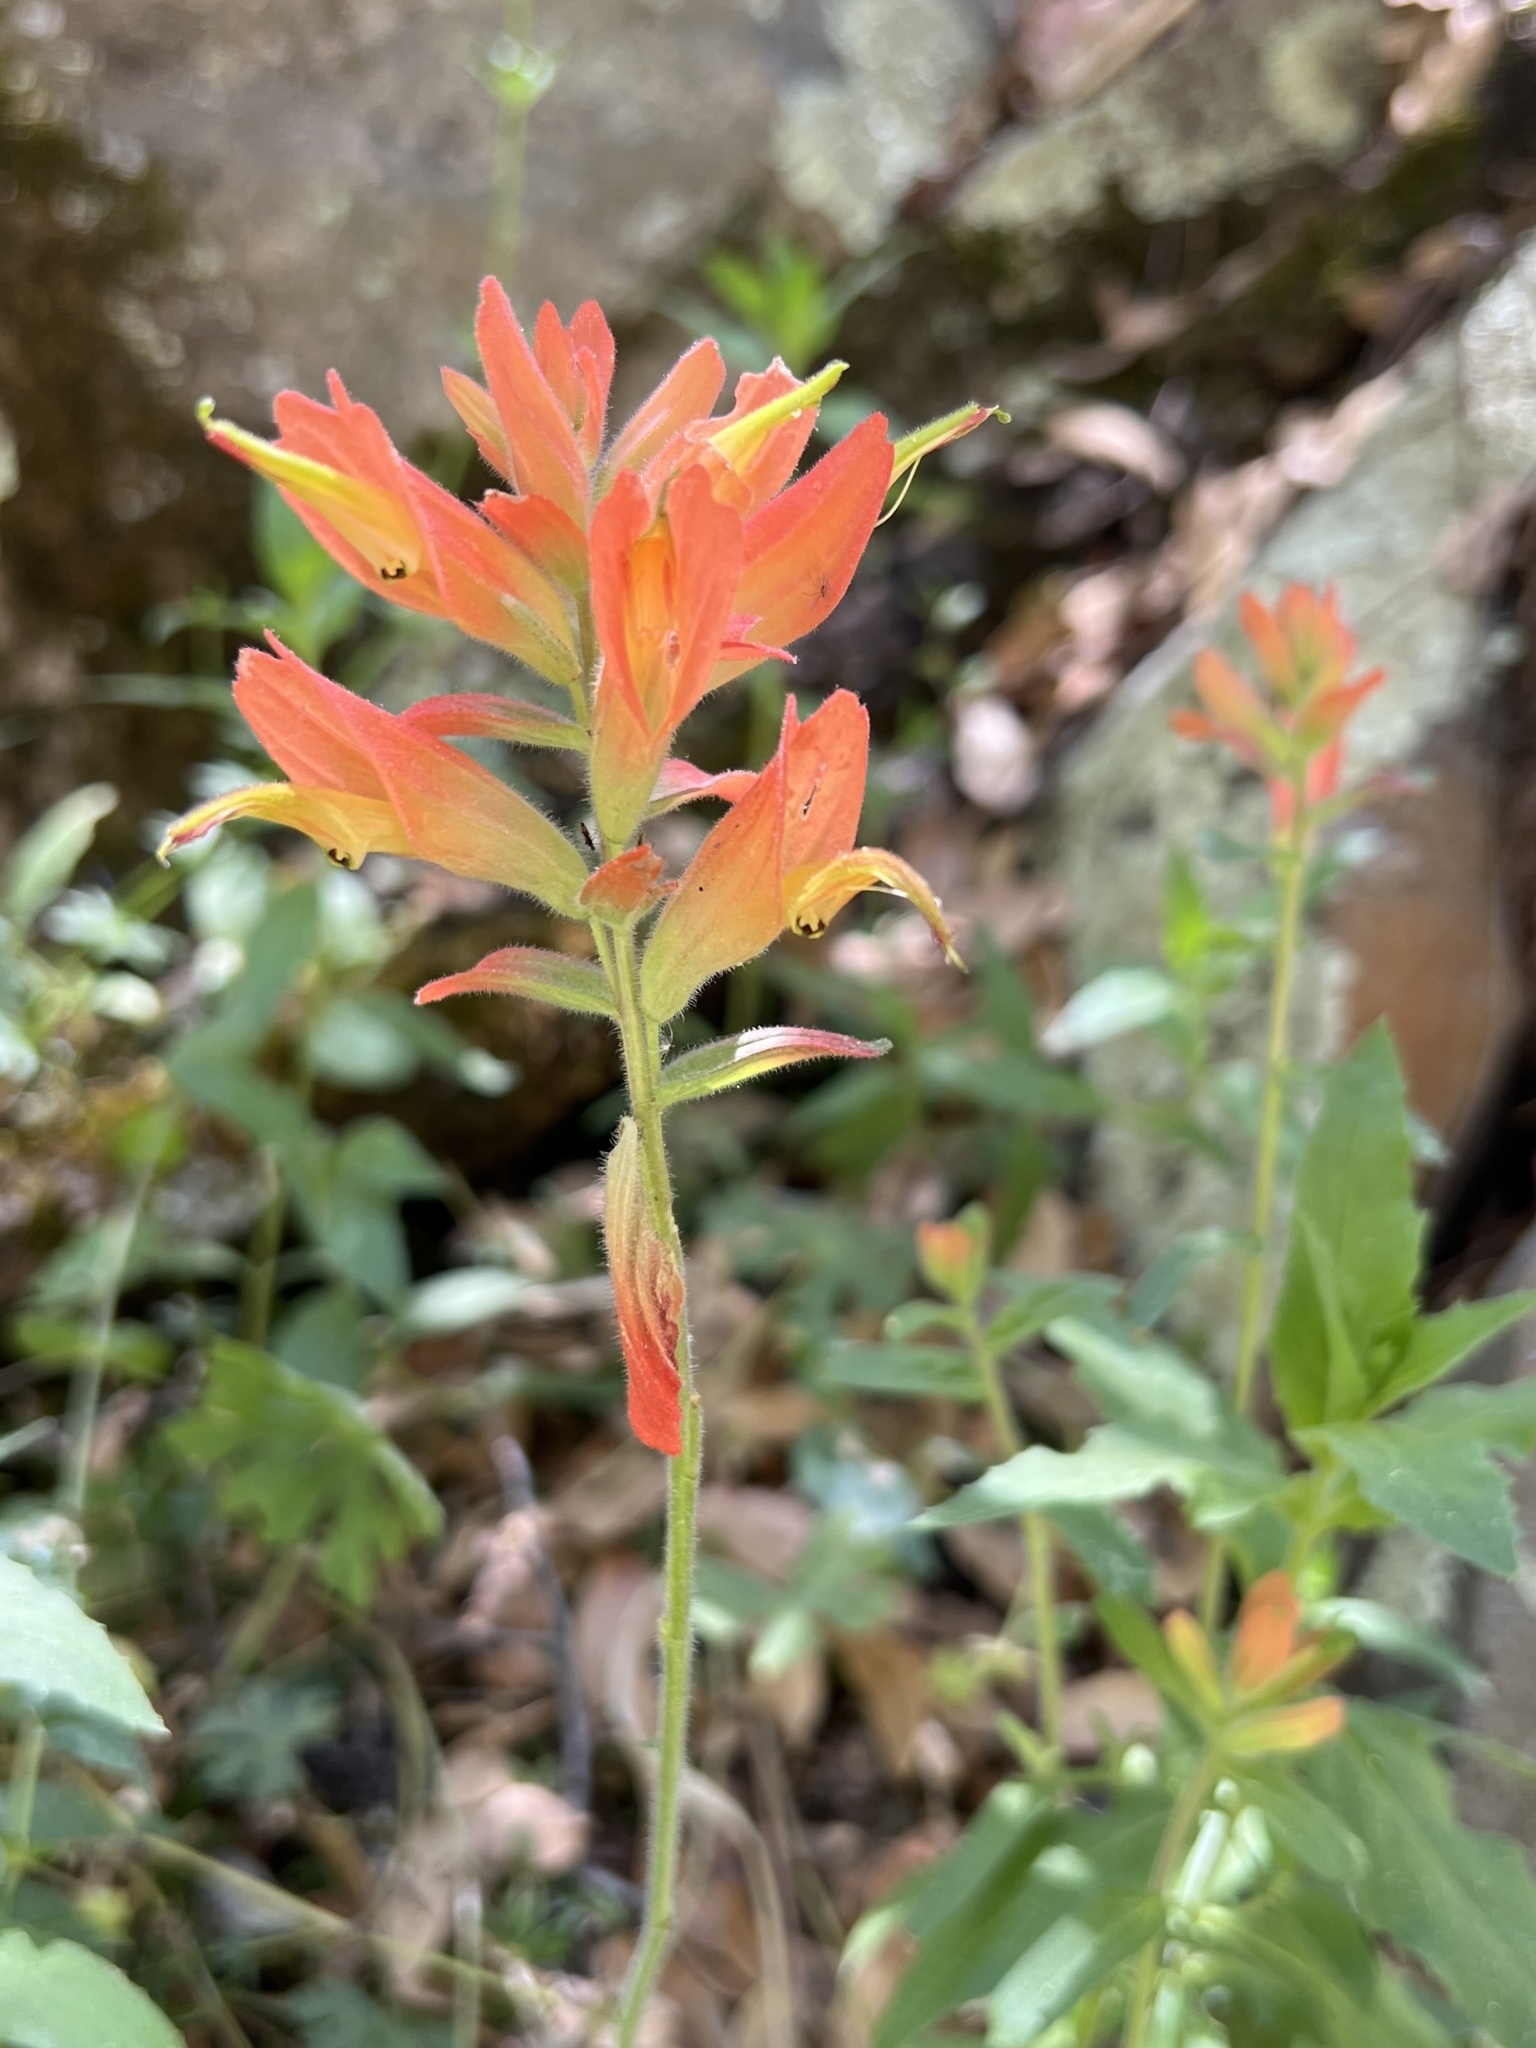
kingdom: Plantae
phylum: Tracheophyta
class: Magnoliopsida
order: Lamiales
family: Orobanchaceae
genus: Castilleja
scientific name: Castilleja tenuiflora
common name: Santa catalina indian paintbrush
